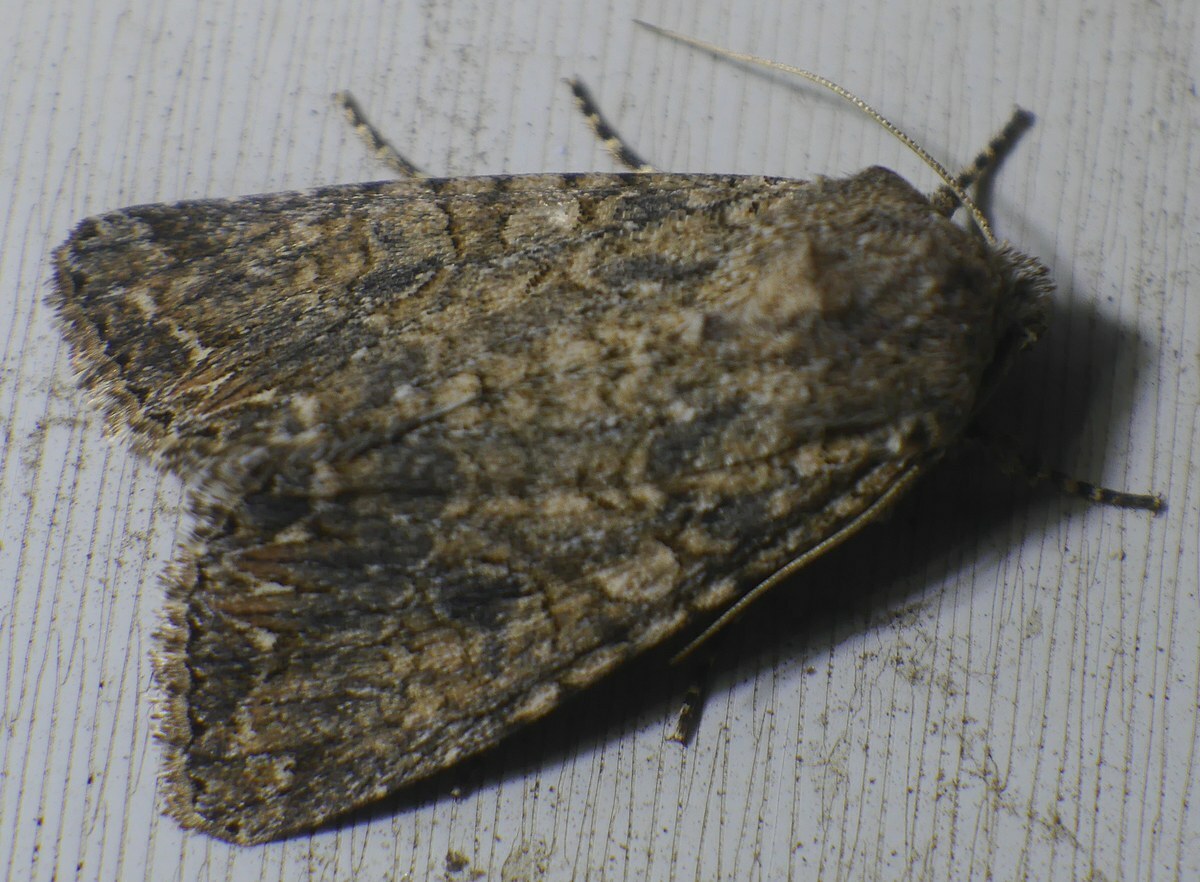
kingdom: Animalia
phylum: Arthropoda
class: Insecta
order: Lepidoptera
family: Noctuidae
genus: Anarta
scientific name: Anarta trifolii
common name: Clover cutworm moth
